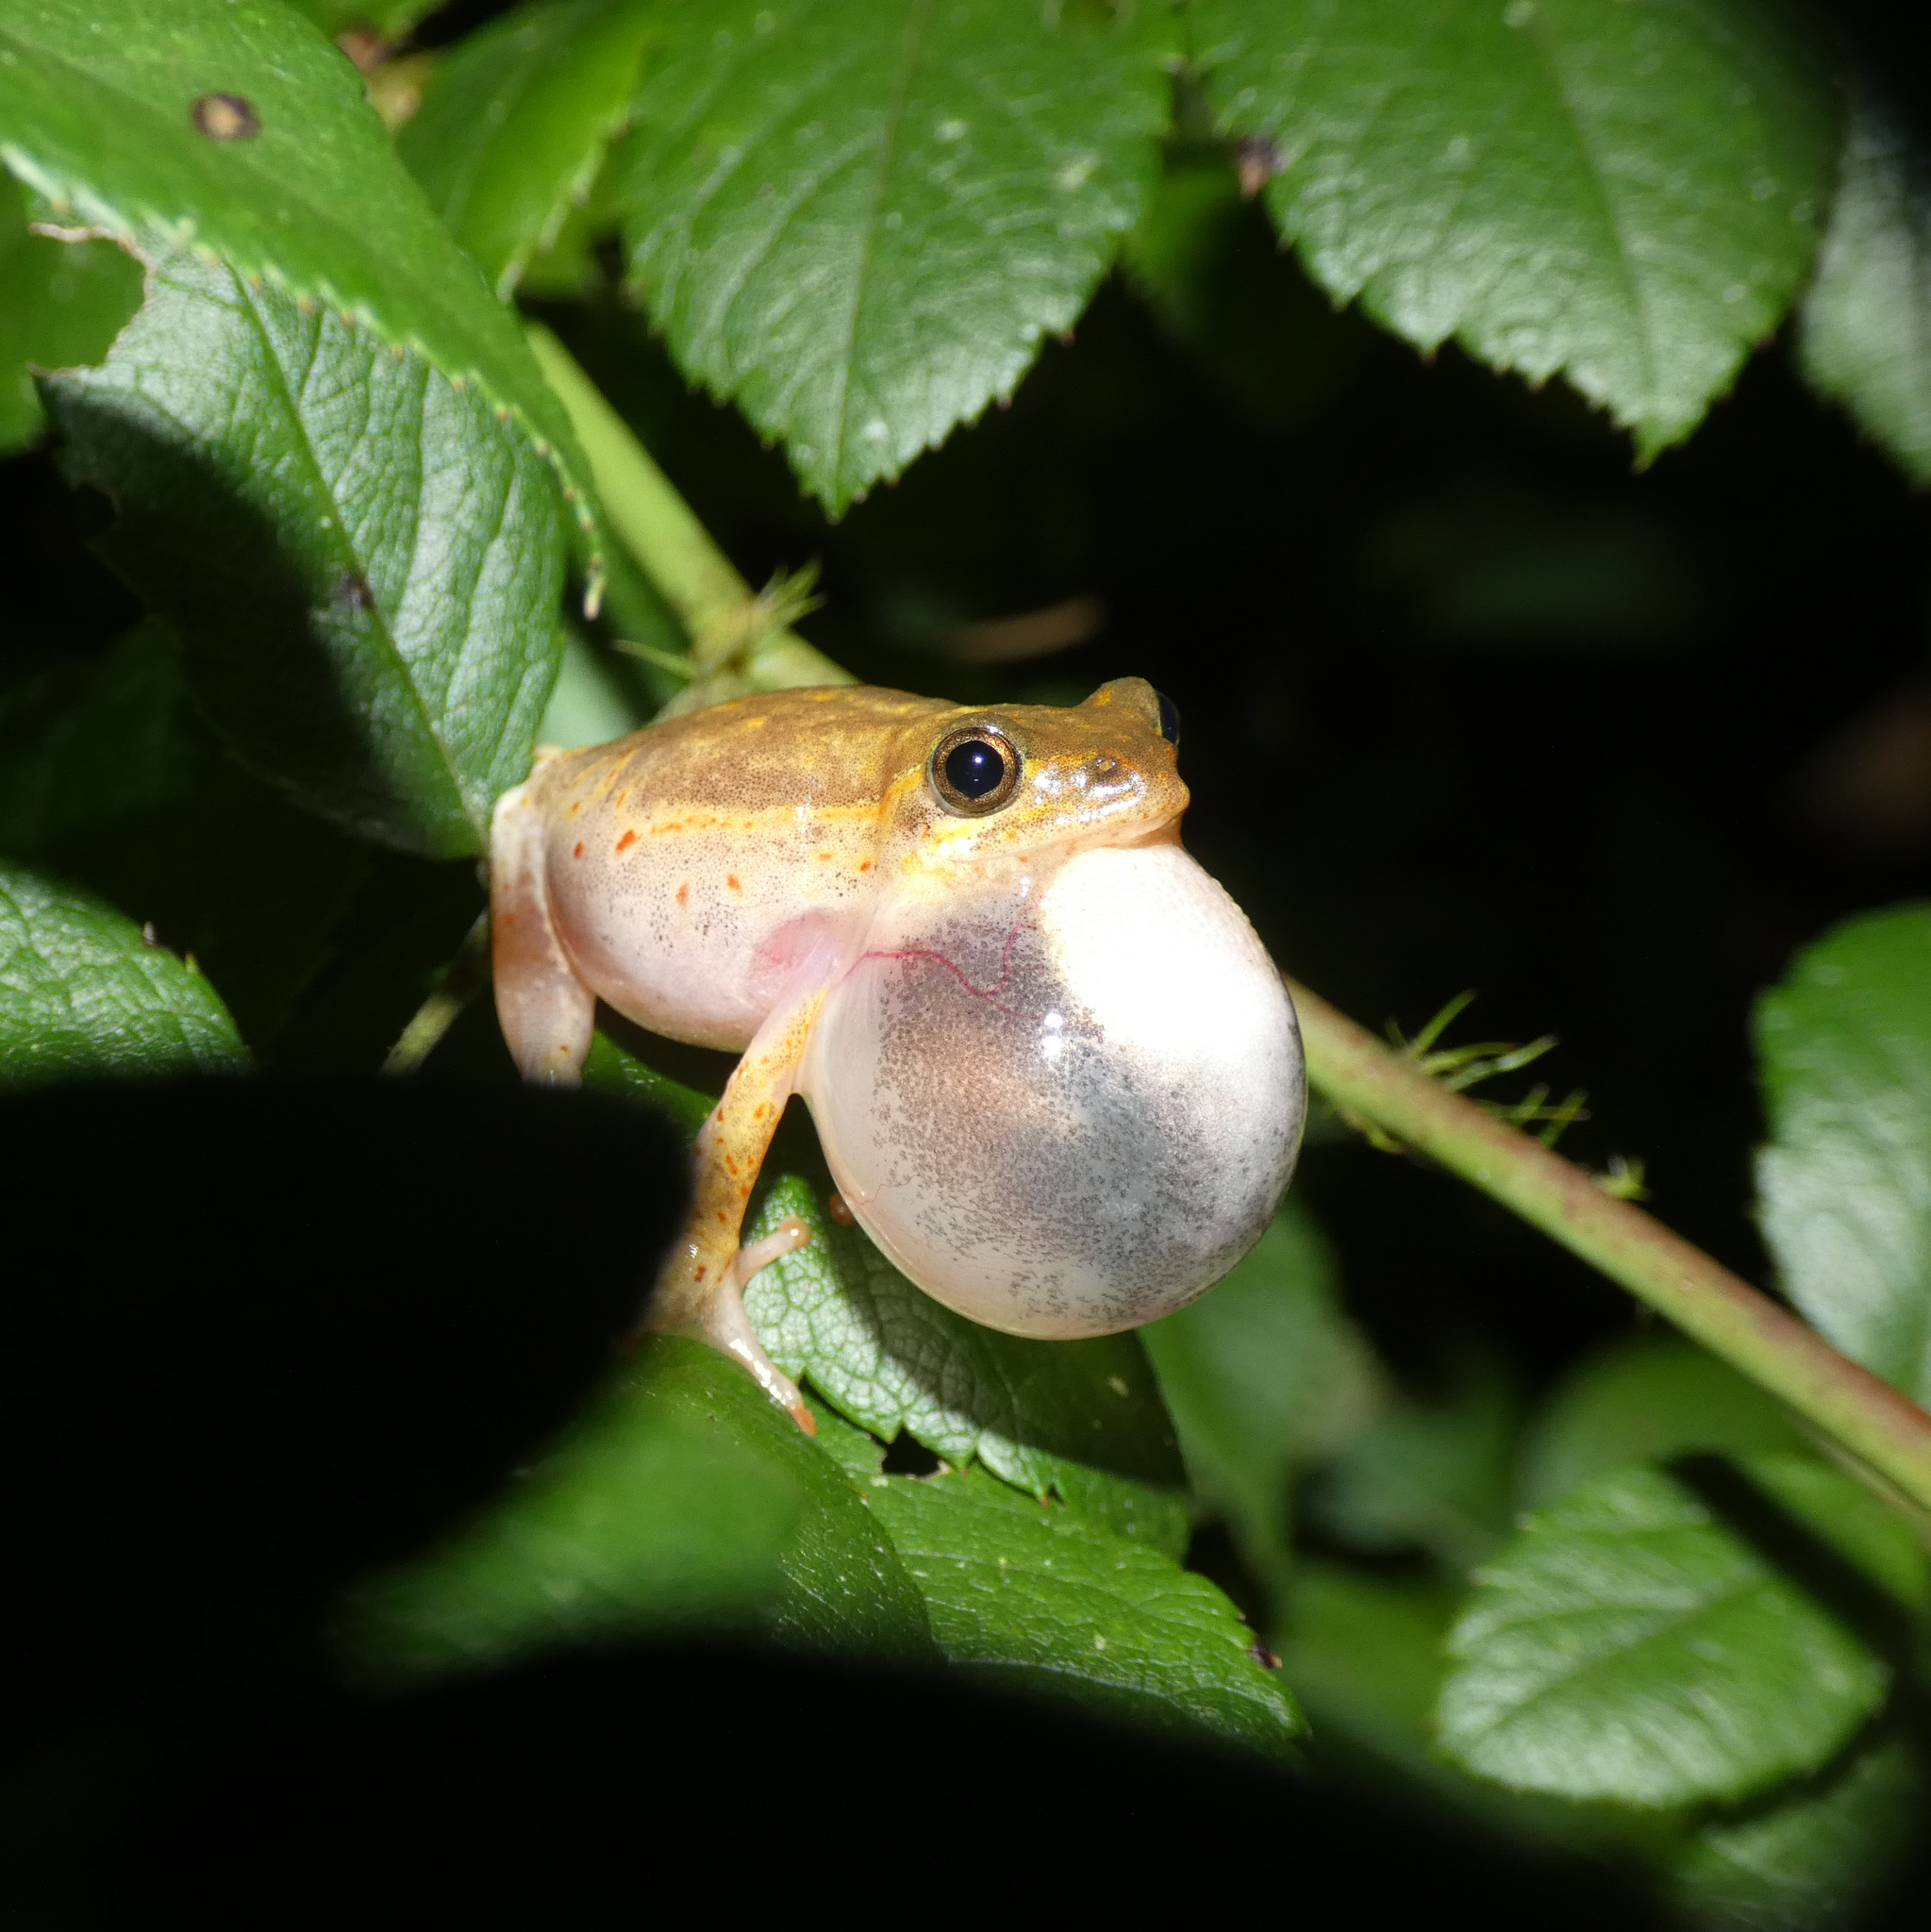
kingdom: Animalia
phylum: Chordata
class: Amphibia
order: Anura
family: Hyperoliidae
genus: Hyperolius
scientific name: Hyperolius marmoratus
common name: Painted reed frog
